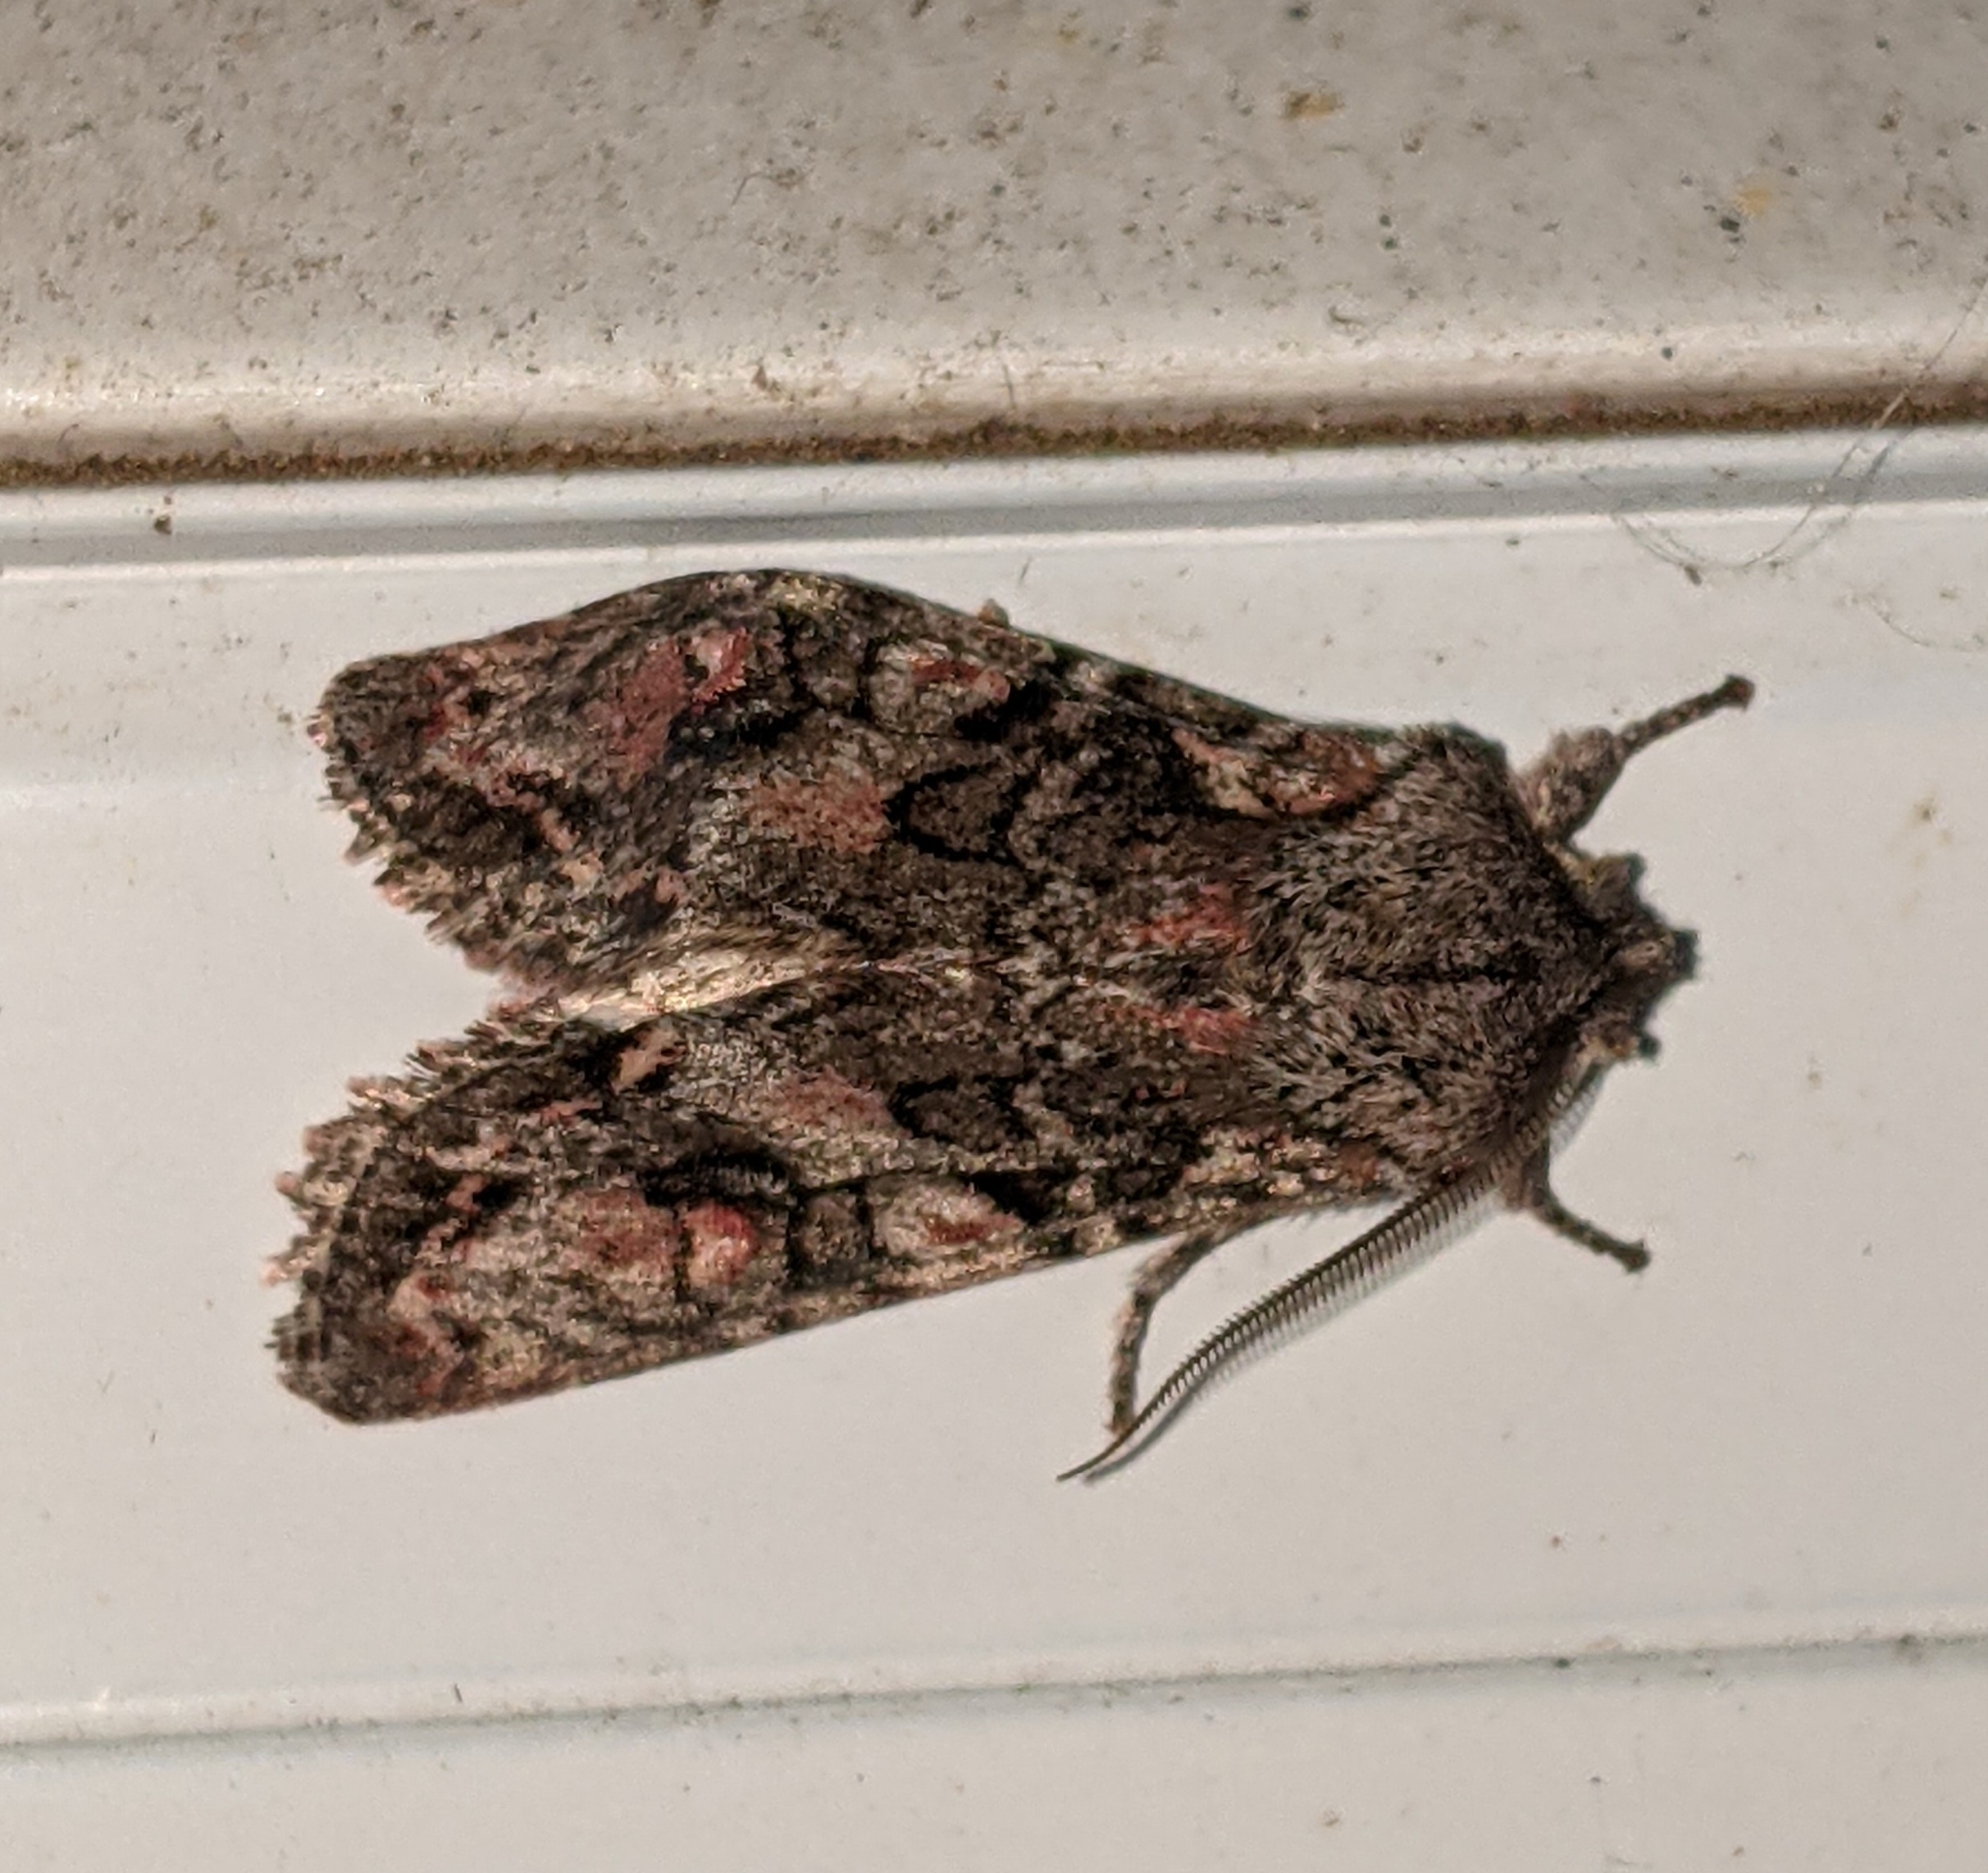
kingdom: Animalia
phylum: Arthropoda
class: Insecta
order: Lepidoptera
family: Noctuidae
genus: Egira
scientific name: Egira hiemalis
